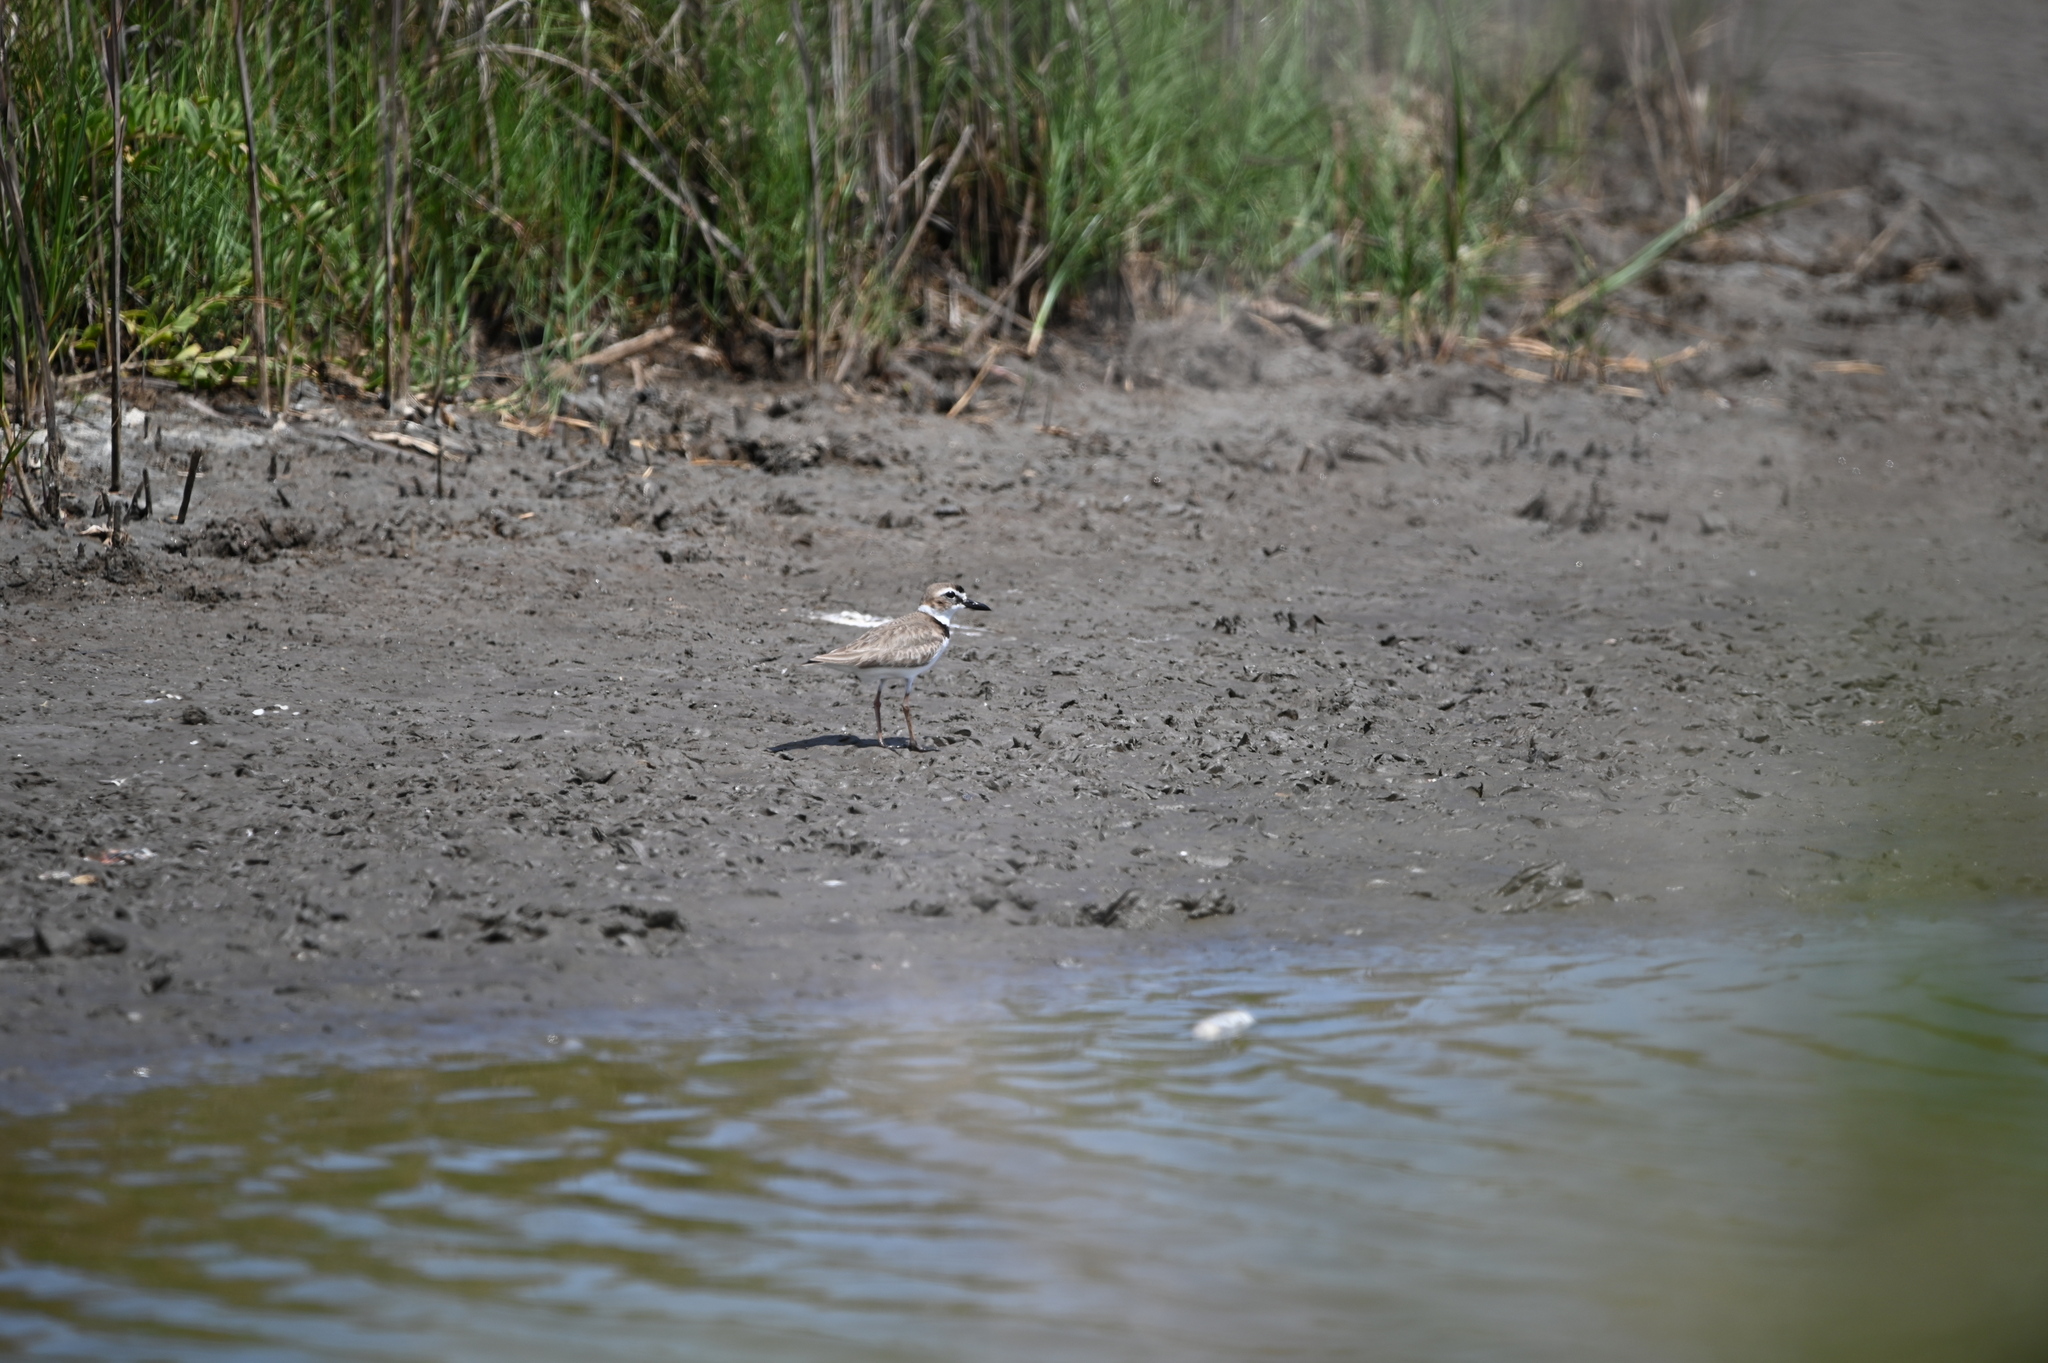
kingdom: Animalia
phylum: Chordata
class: Aves
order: Charadriiformes
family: Charadriidae
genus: Anarhynchus
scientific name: Anarhynchus
